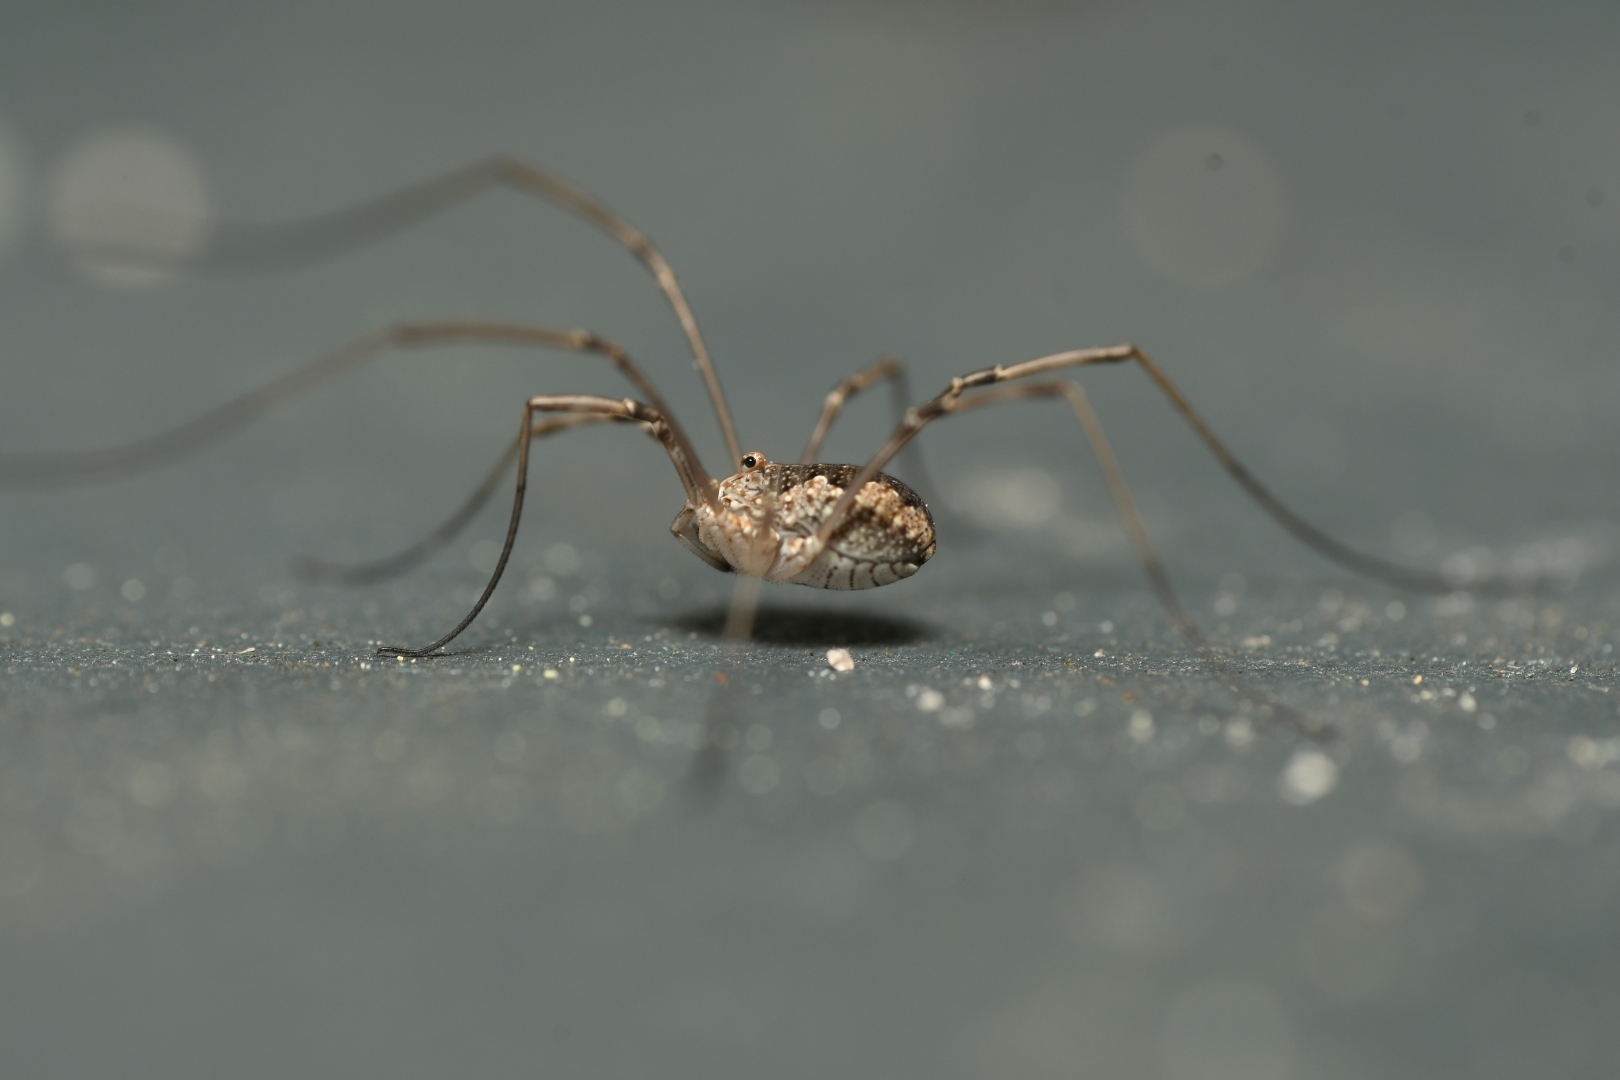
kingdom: Animalia
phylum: Arthropoda
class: Arachnida
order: Opiliones
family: Phalangiidae
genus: Phalangium
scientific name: Phalangium opilio
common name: Daddy longleg
